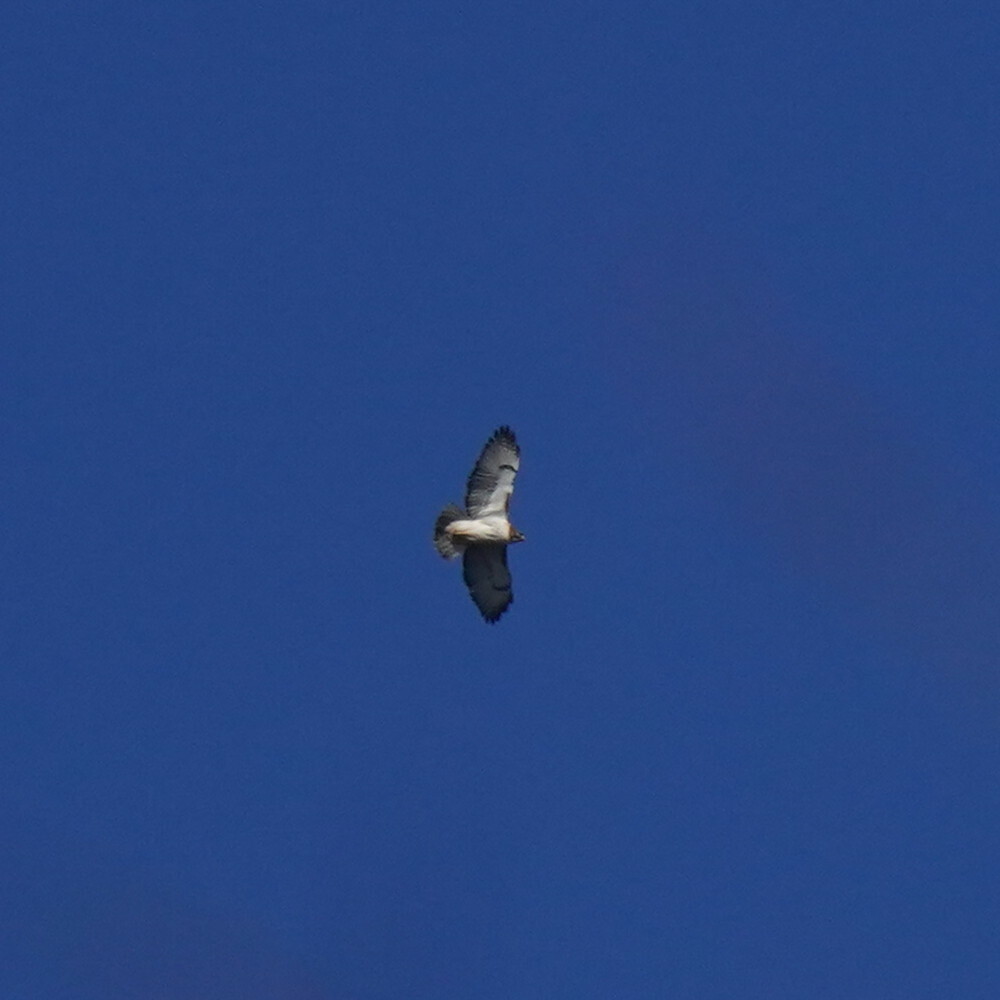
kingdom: Animalia
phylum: Chordata
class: Aves
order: Accipitriformes
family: Accipitridae
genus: Buteo
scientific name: Buteo jamaicensis
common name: Red-tailed hawk
